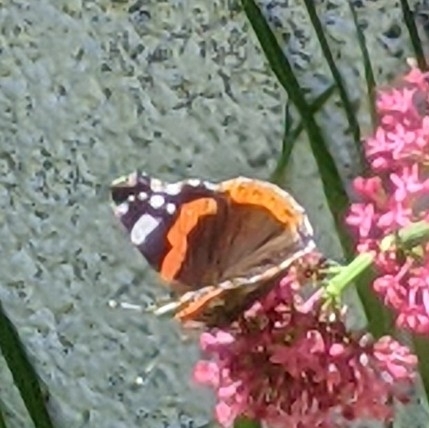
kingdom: Animalia
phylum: Arthropoda
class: Insecta
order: Lepidoptera
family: Nymphalidae
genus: Vanessa
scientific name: Vanessa atalanta
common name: Red admiral
